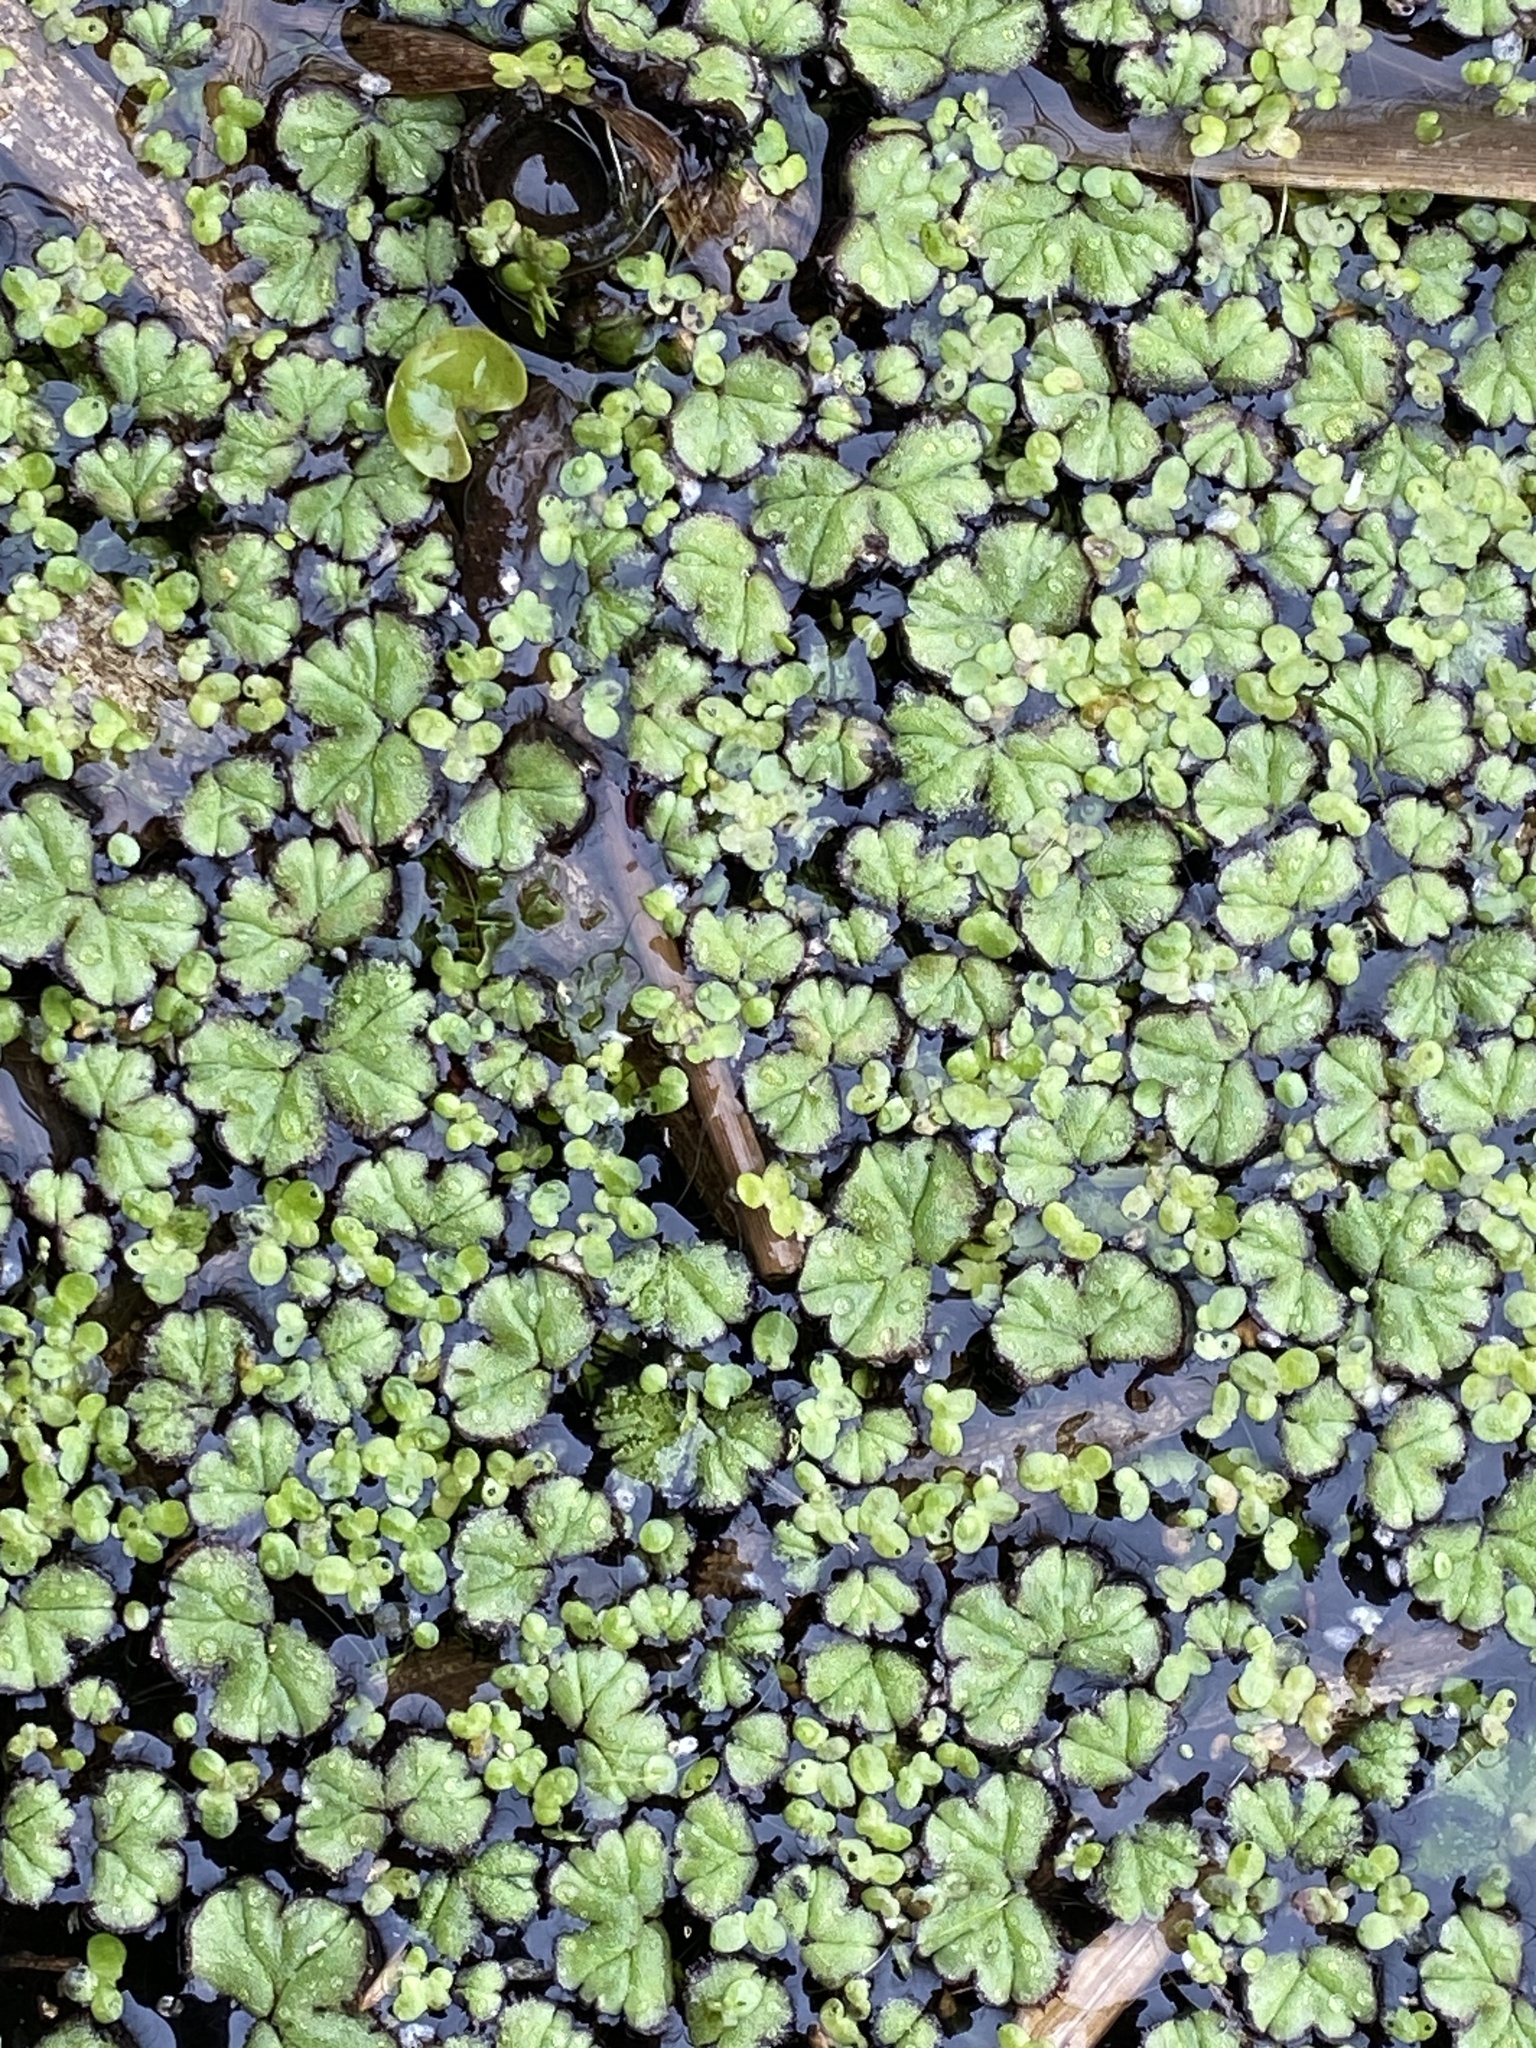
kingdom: Plantae
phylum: Marchantiophyta
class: Marchantiopsida
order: Marchantiales
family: Ricciaceae
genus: Ricciocarpos
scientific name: Ricciocarpos natans
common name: Purple-fringed liverwort
